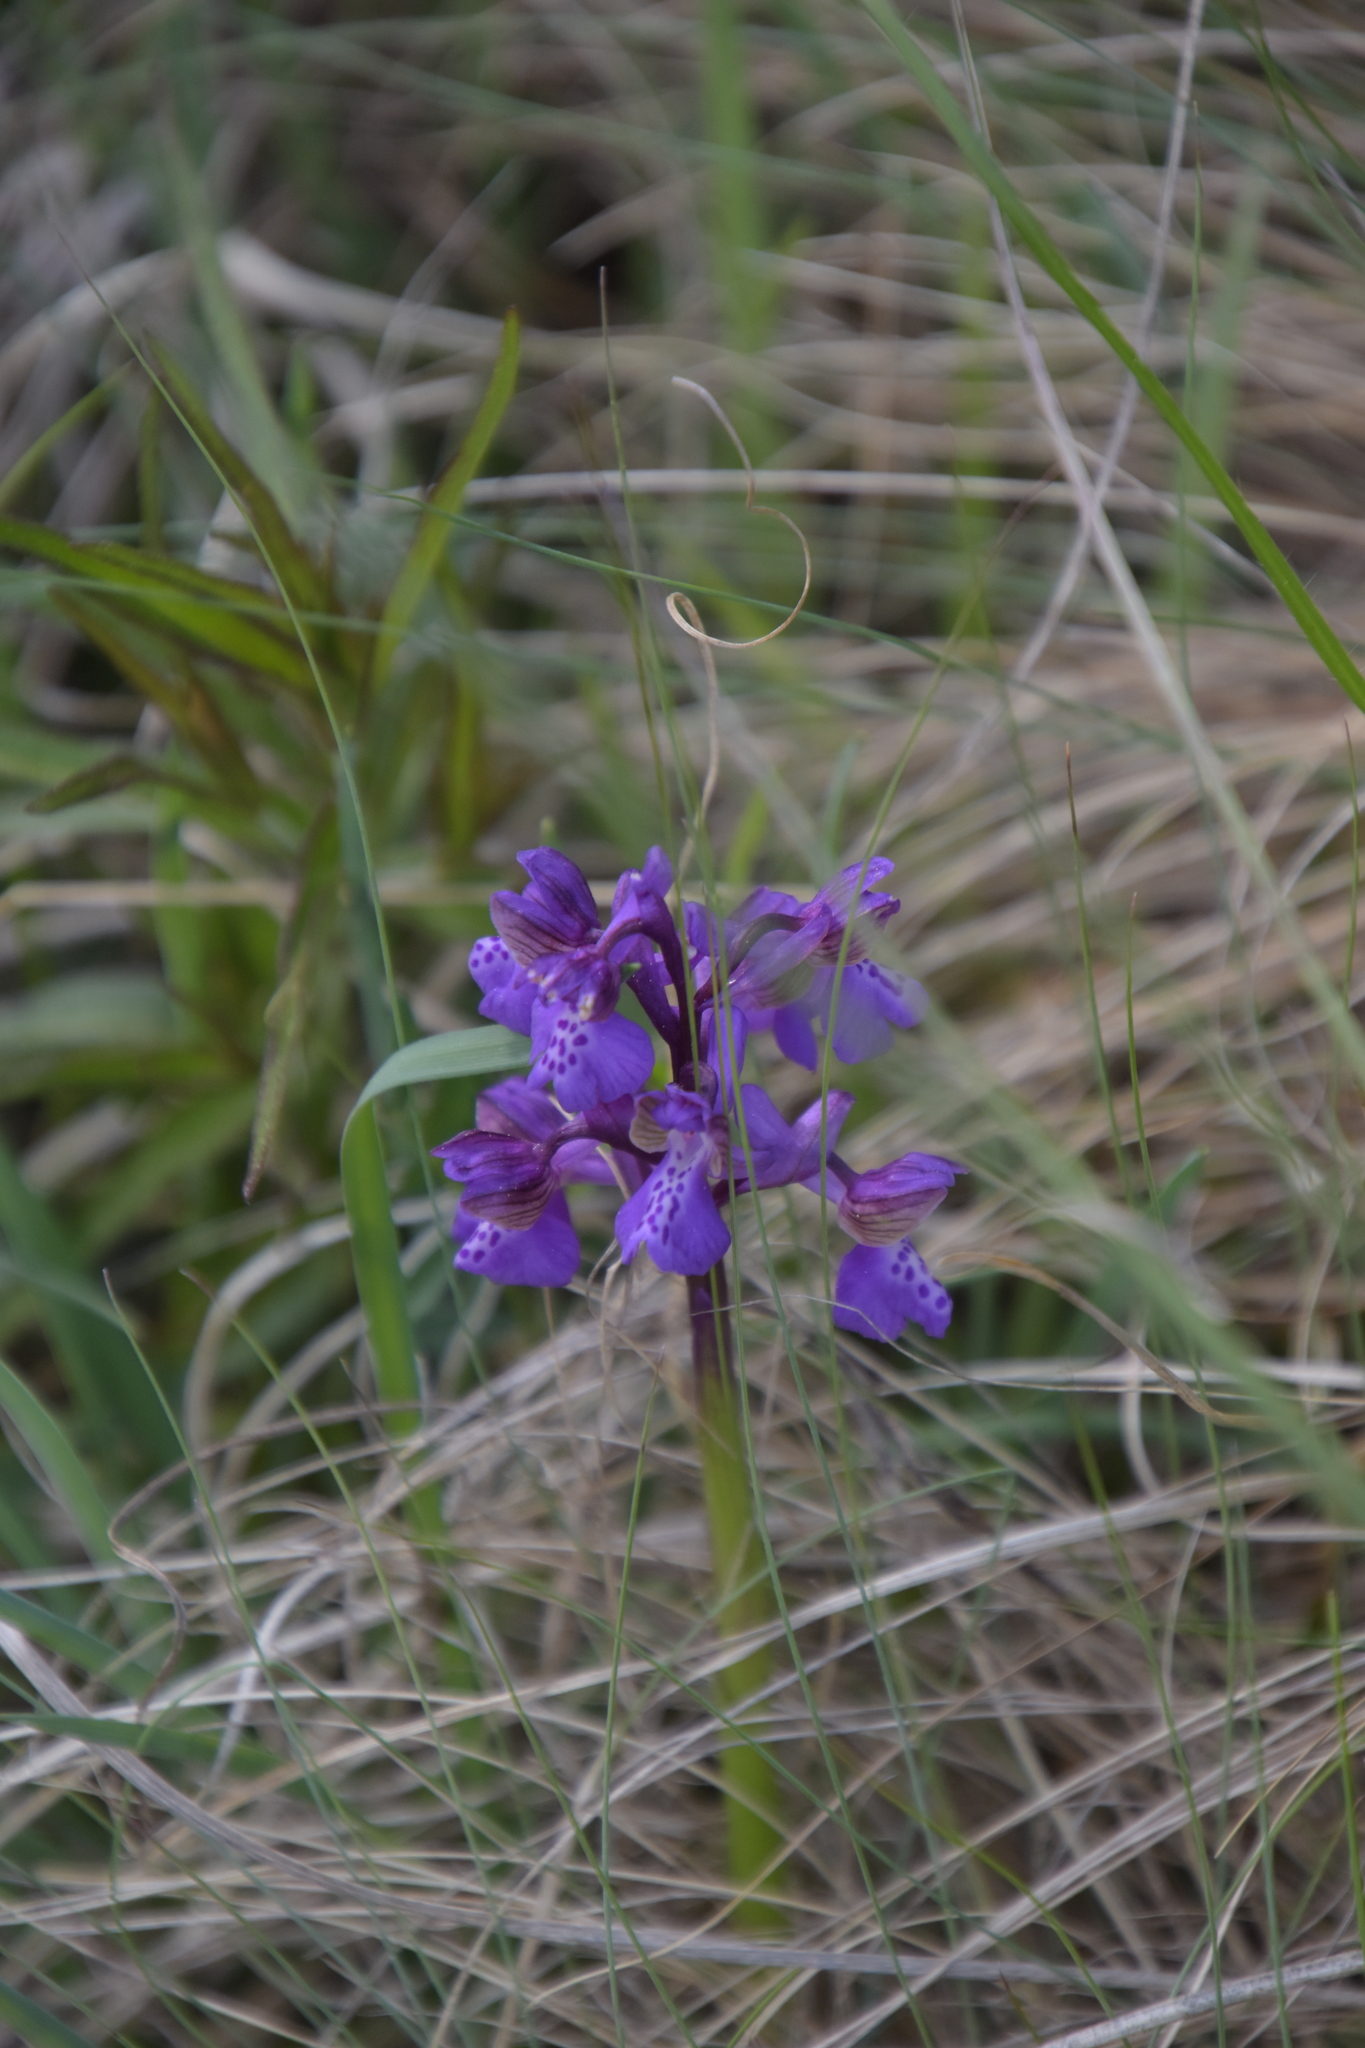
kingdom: Plantae
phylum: Tracheophyta
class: Liliopsida
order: Asparagales
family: Orchidaceae
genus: Anacamptis
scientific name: Anacamptis morio
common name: Green-winged orchid
